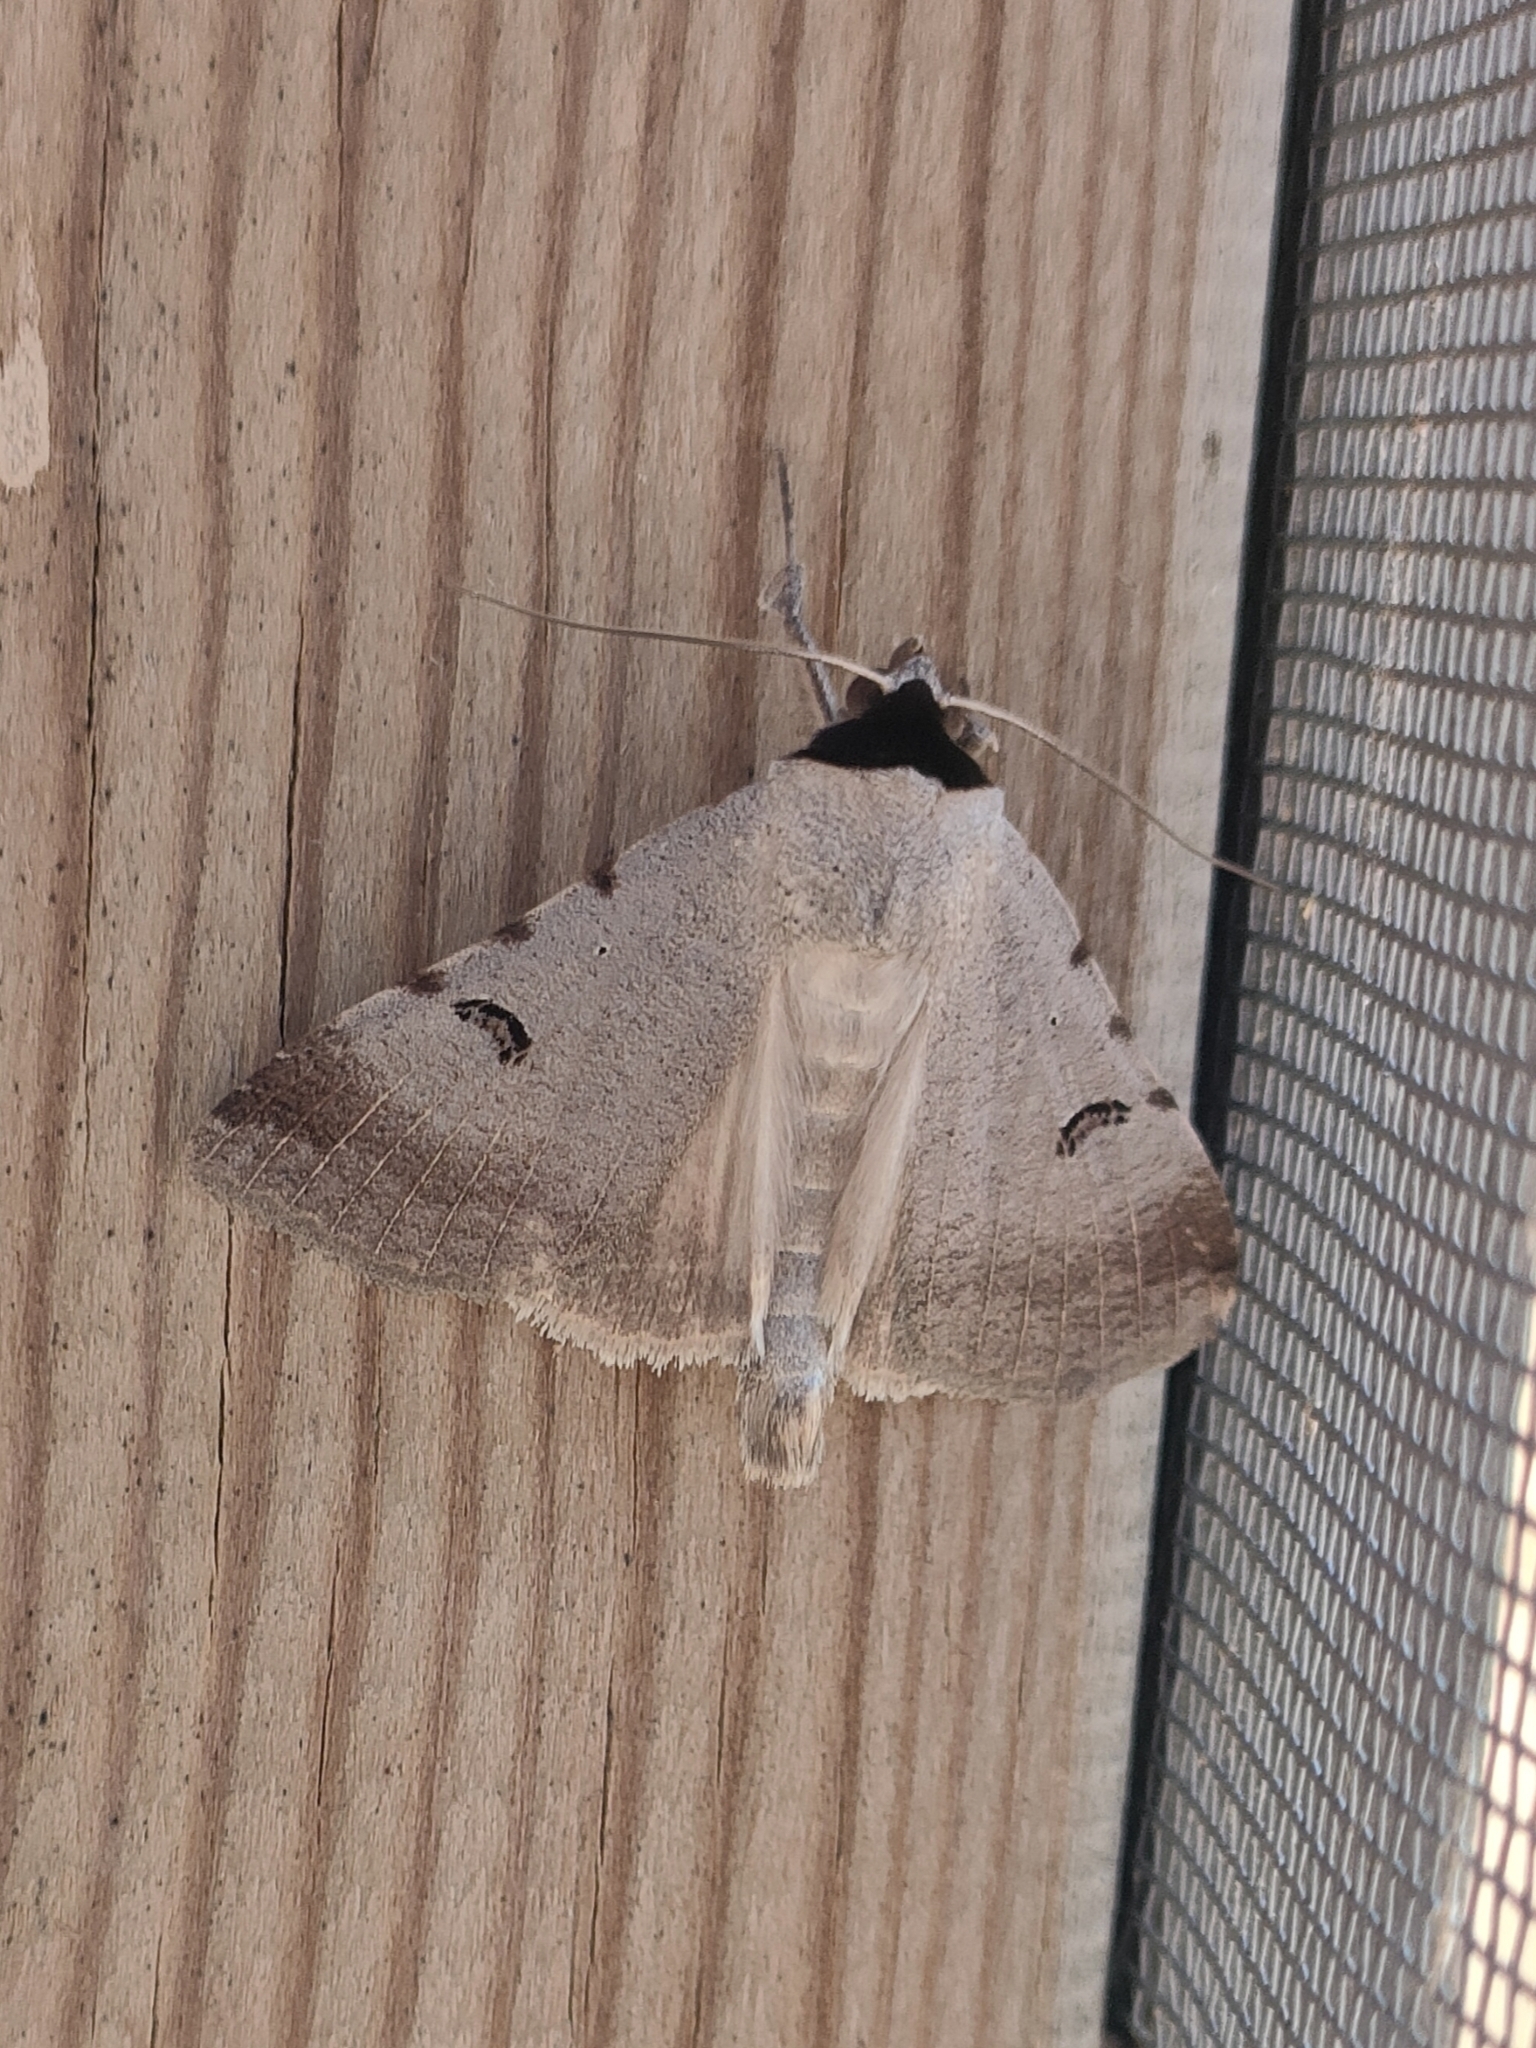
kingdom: Animalia
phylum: Arthropoda
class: Insecta
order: Lepidoptera
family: Erebidae
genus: Lygephila
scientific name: Lygephila craccae
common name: Scarce blackneck
